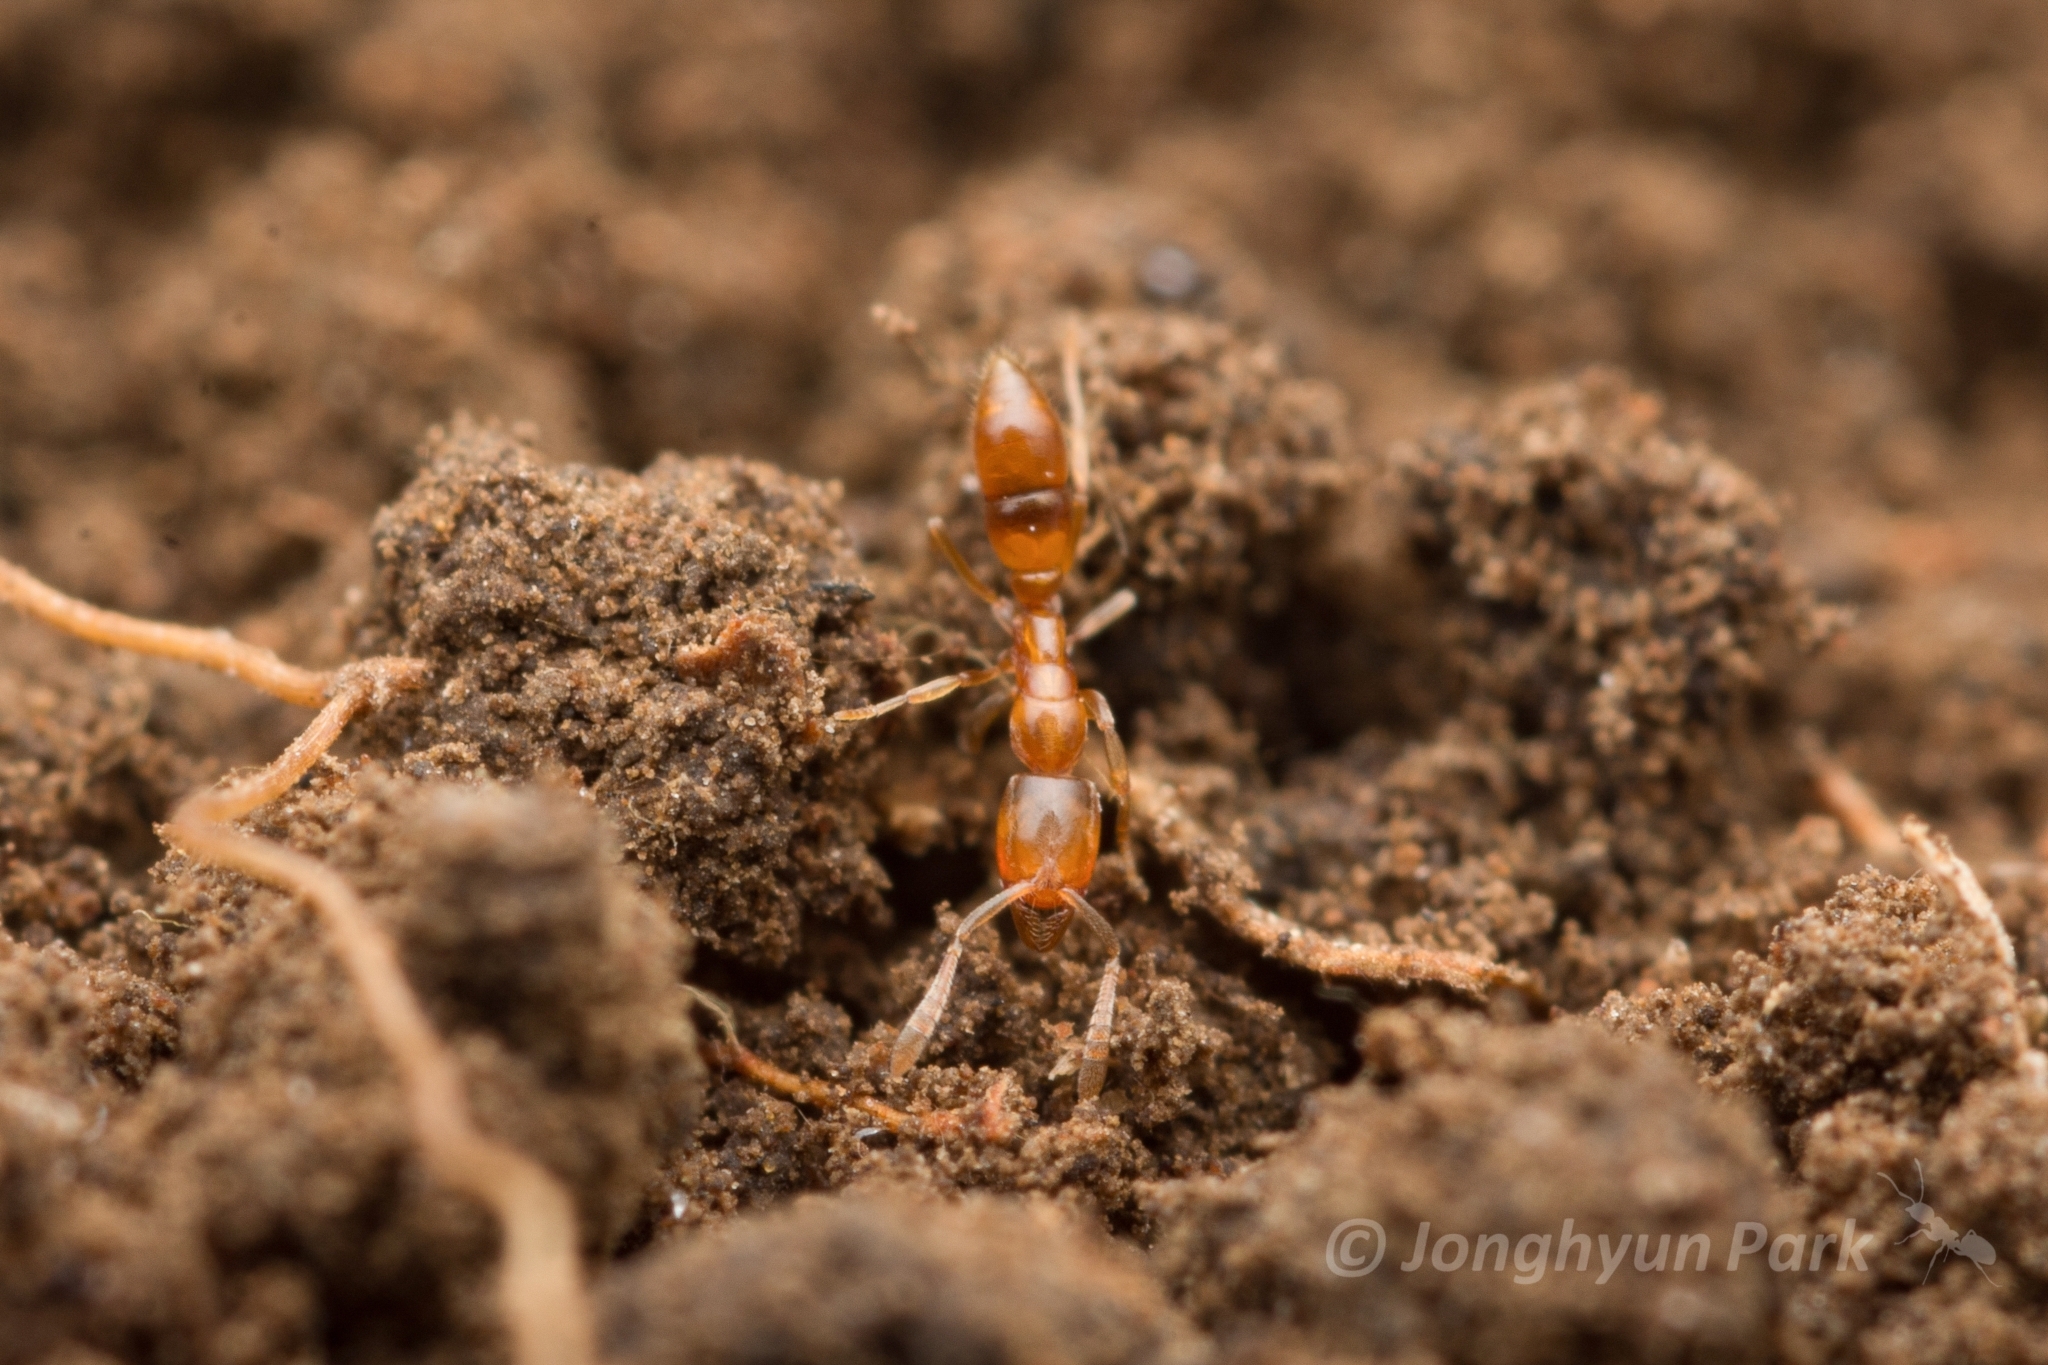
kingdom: Animalia
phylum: Arthropoda
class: Insecta
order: Hymenoptera
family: Formicidae
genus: Hypoponera
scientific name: Hypoponera sauteri
